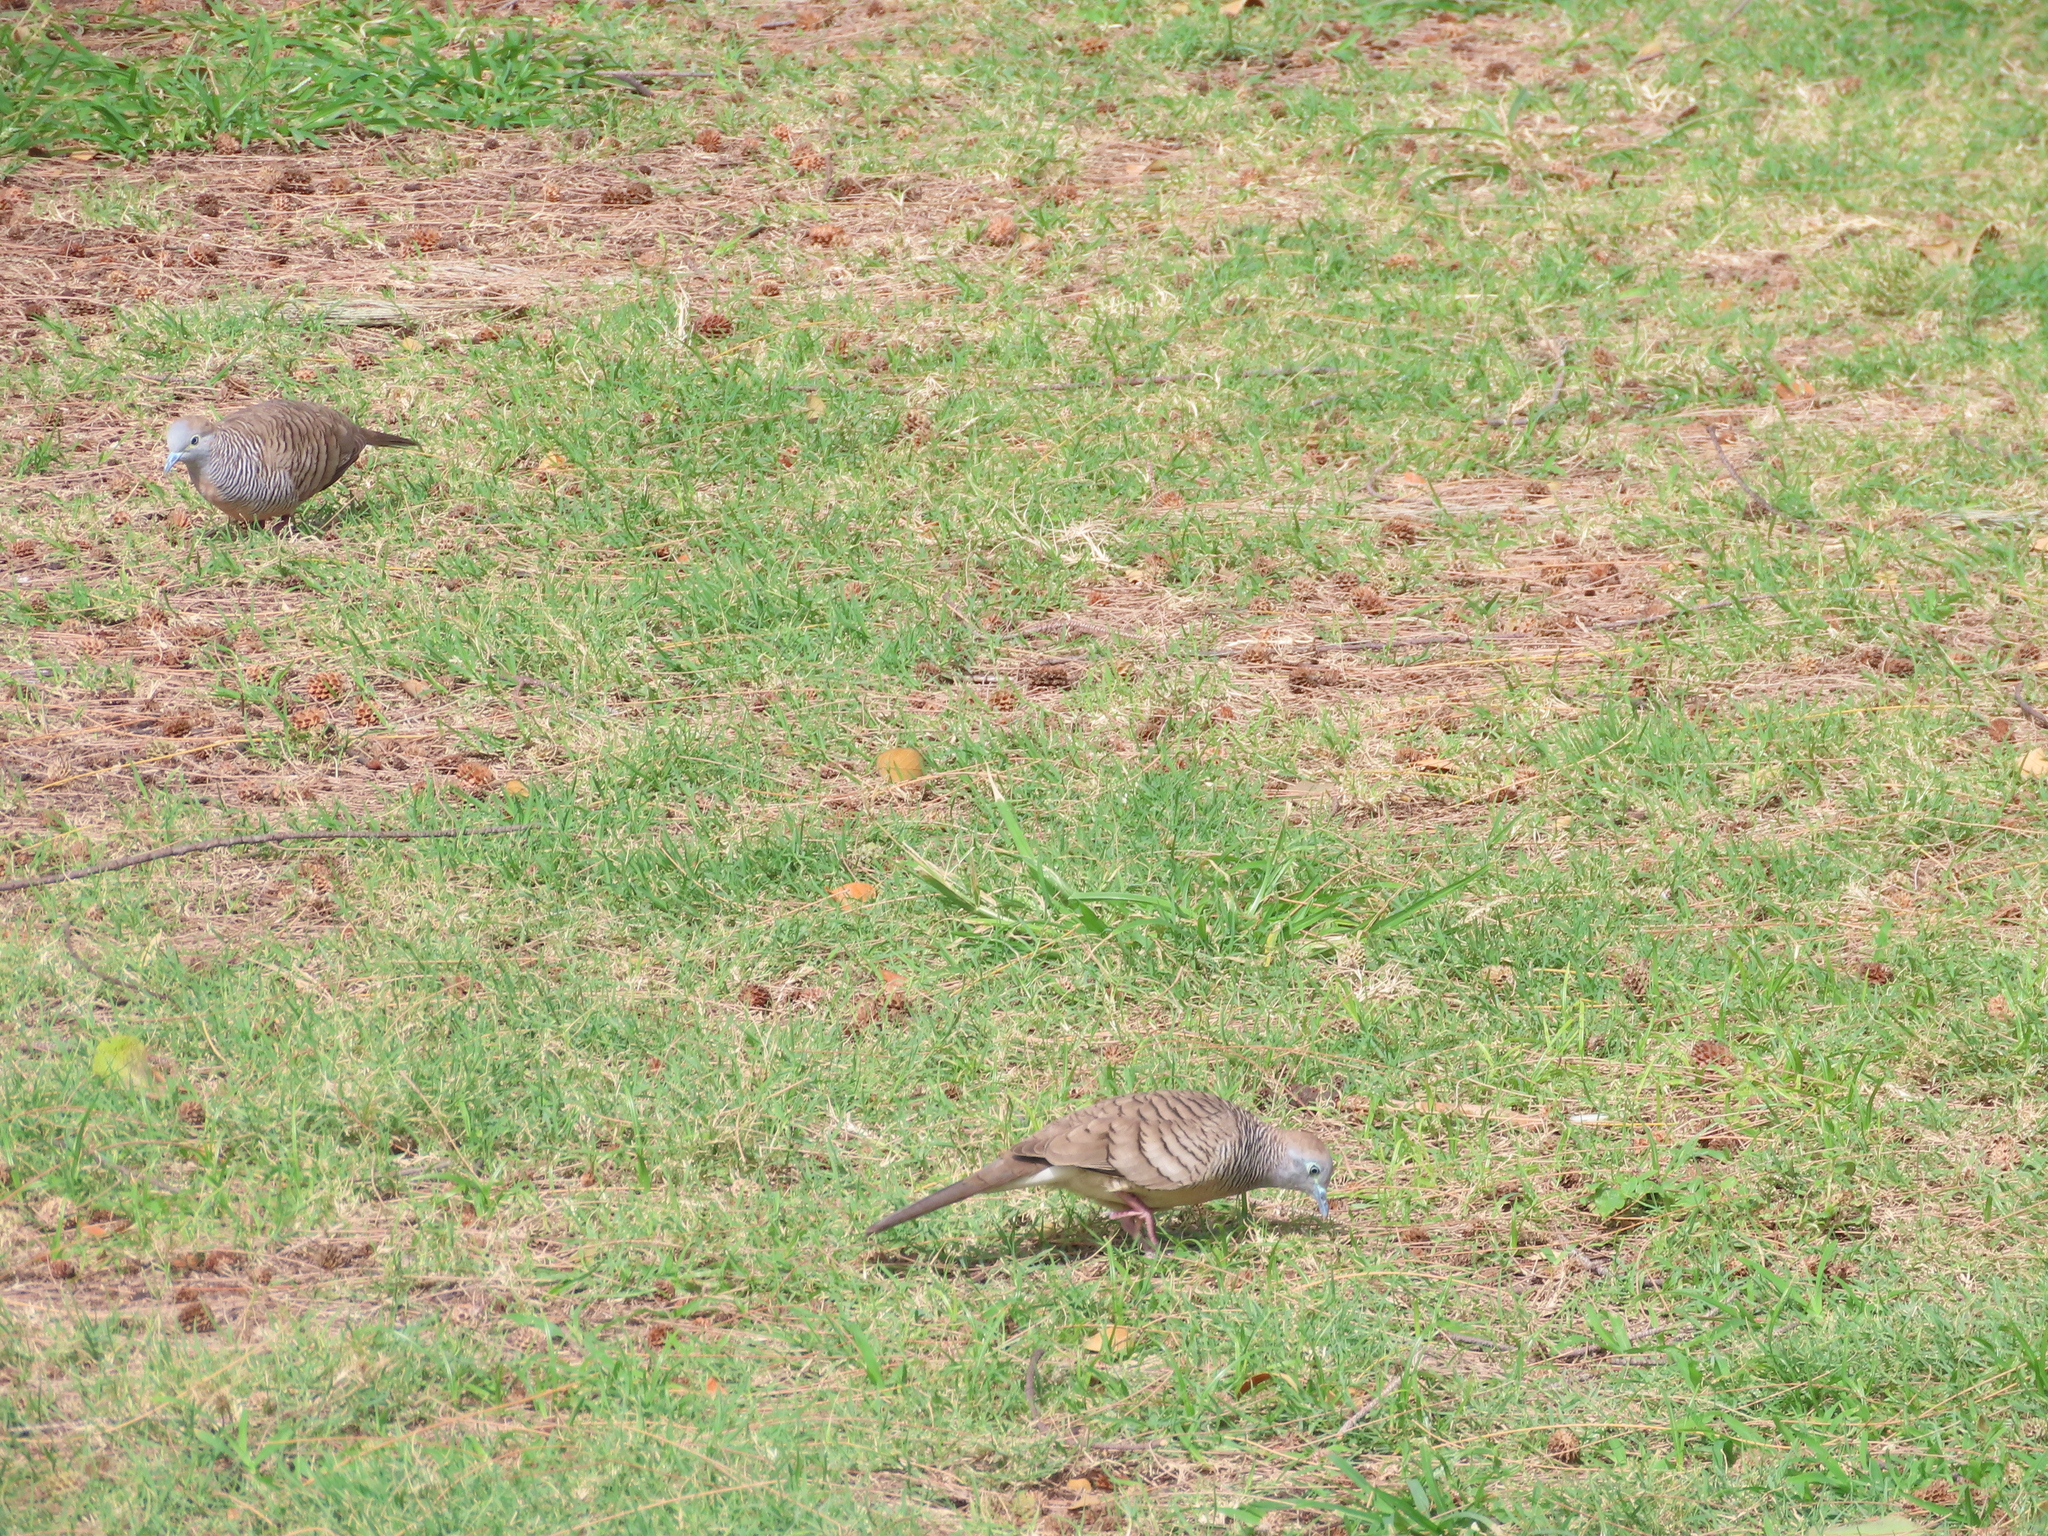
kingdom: Animalia
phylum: Chordata
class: Aves
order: Columbiformes
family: Columbidae
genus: Geopelia
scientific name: Geopelia striata
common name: Zebra dove
